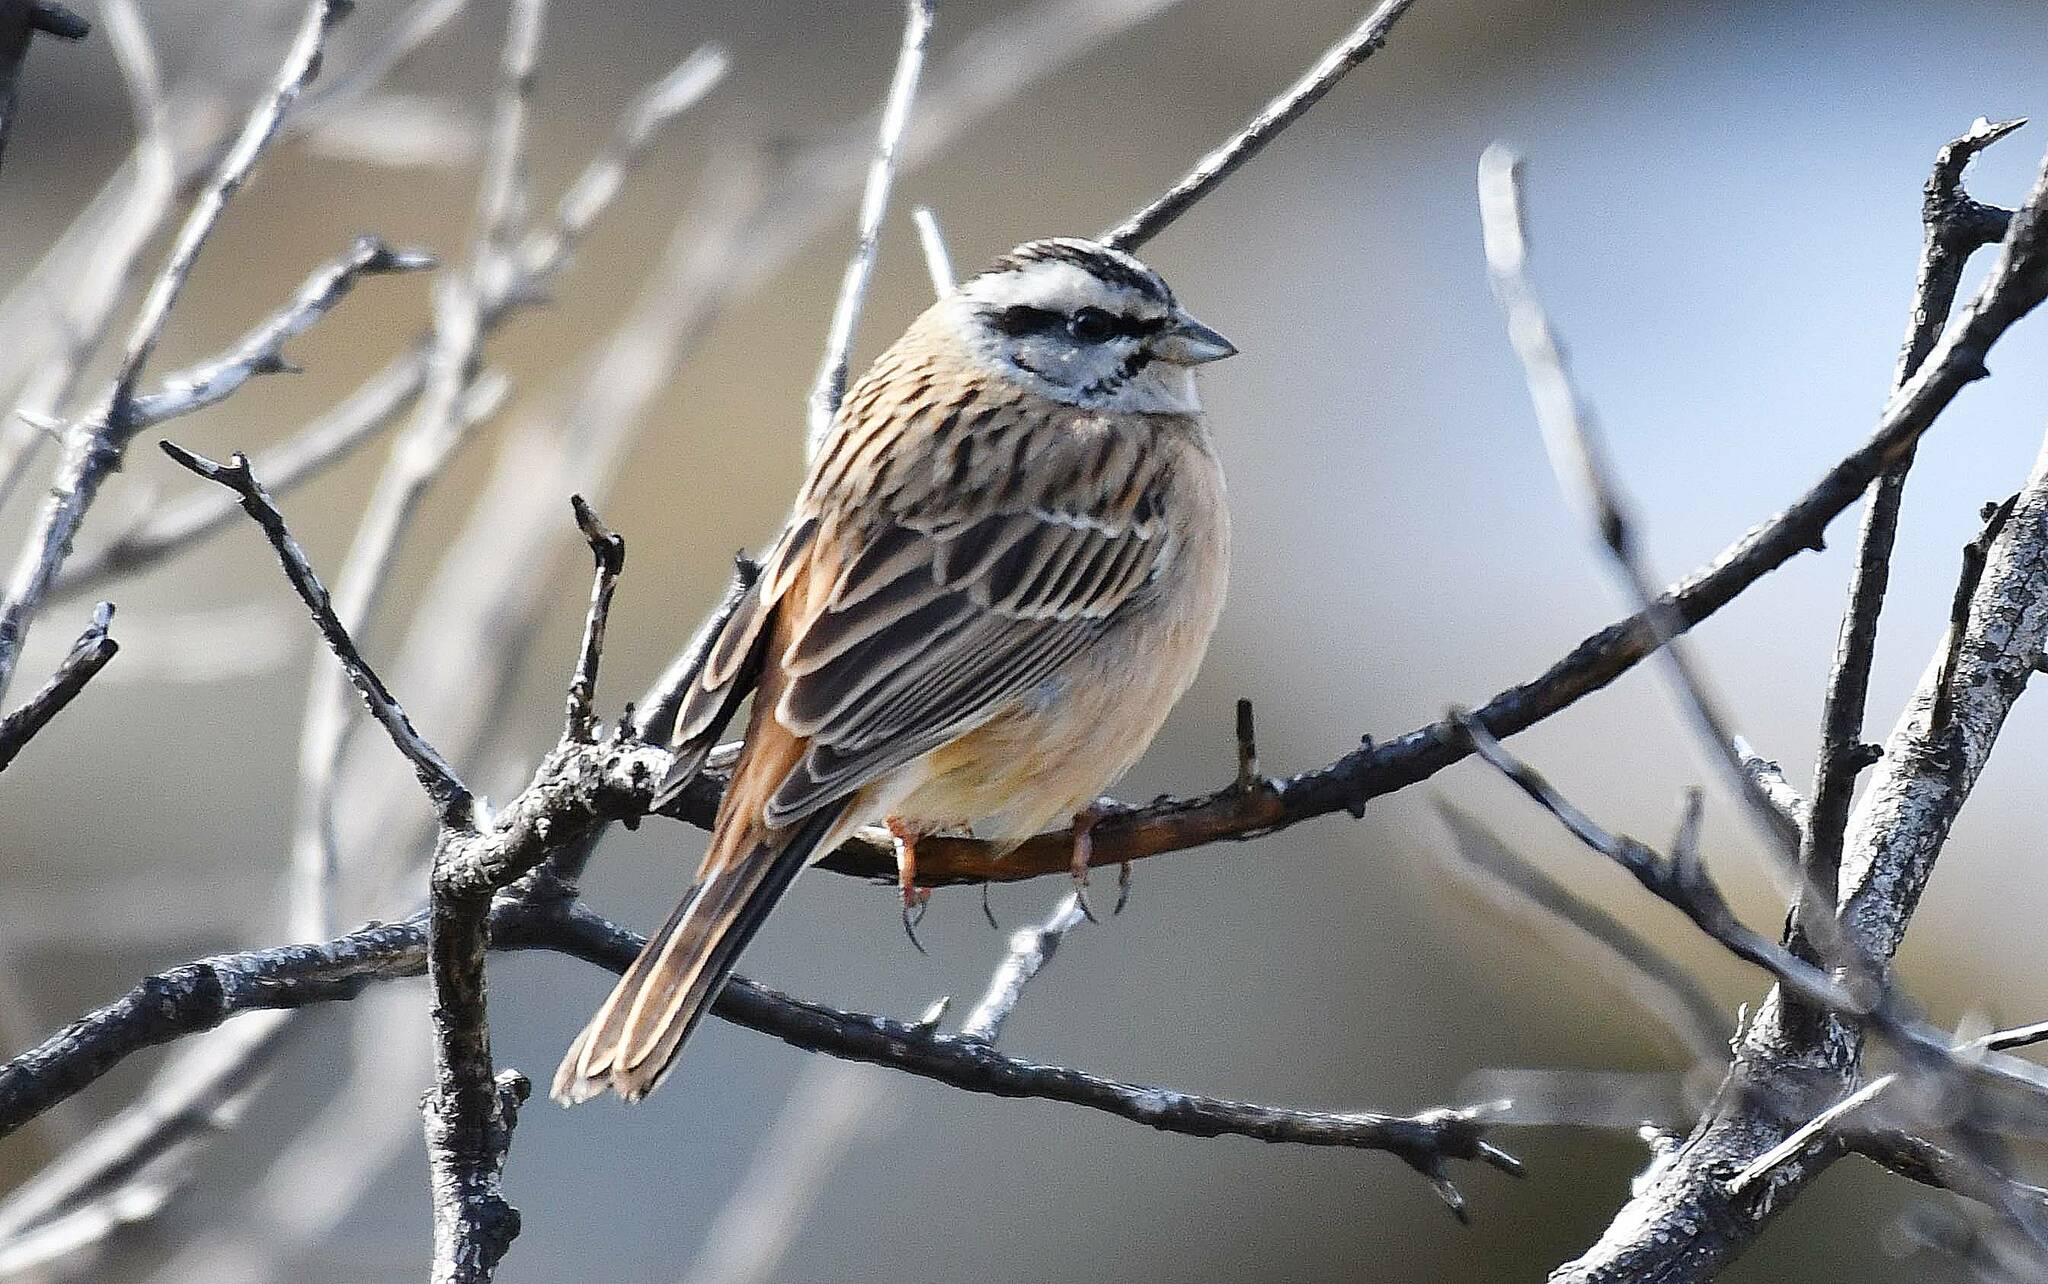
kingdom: Animalia
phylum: Chordata
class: Aves
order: Passeriformes
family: Emberizidae
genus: Emberiza
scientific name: Emberiza cia
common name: Rock bunting
